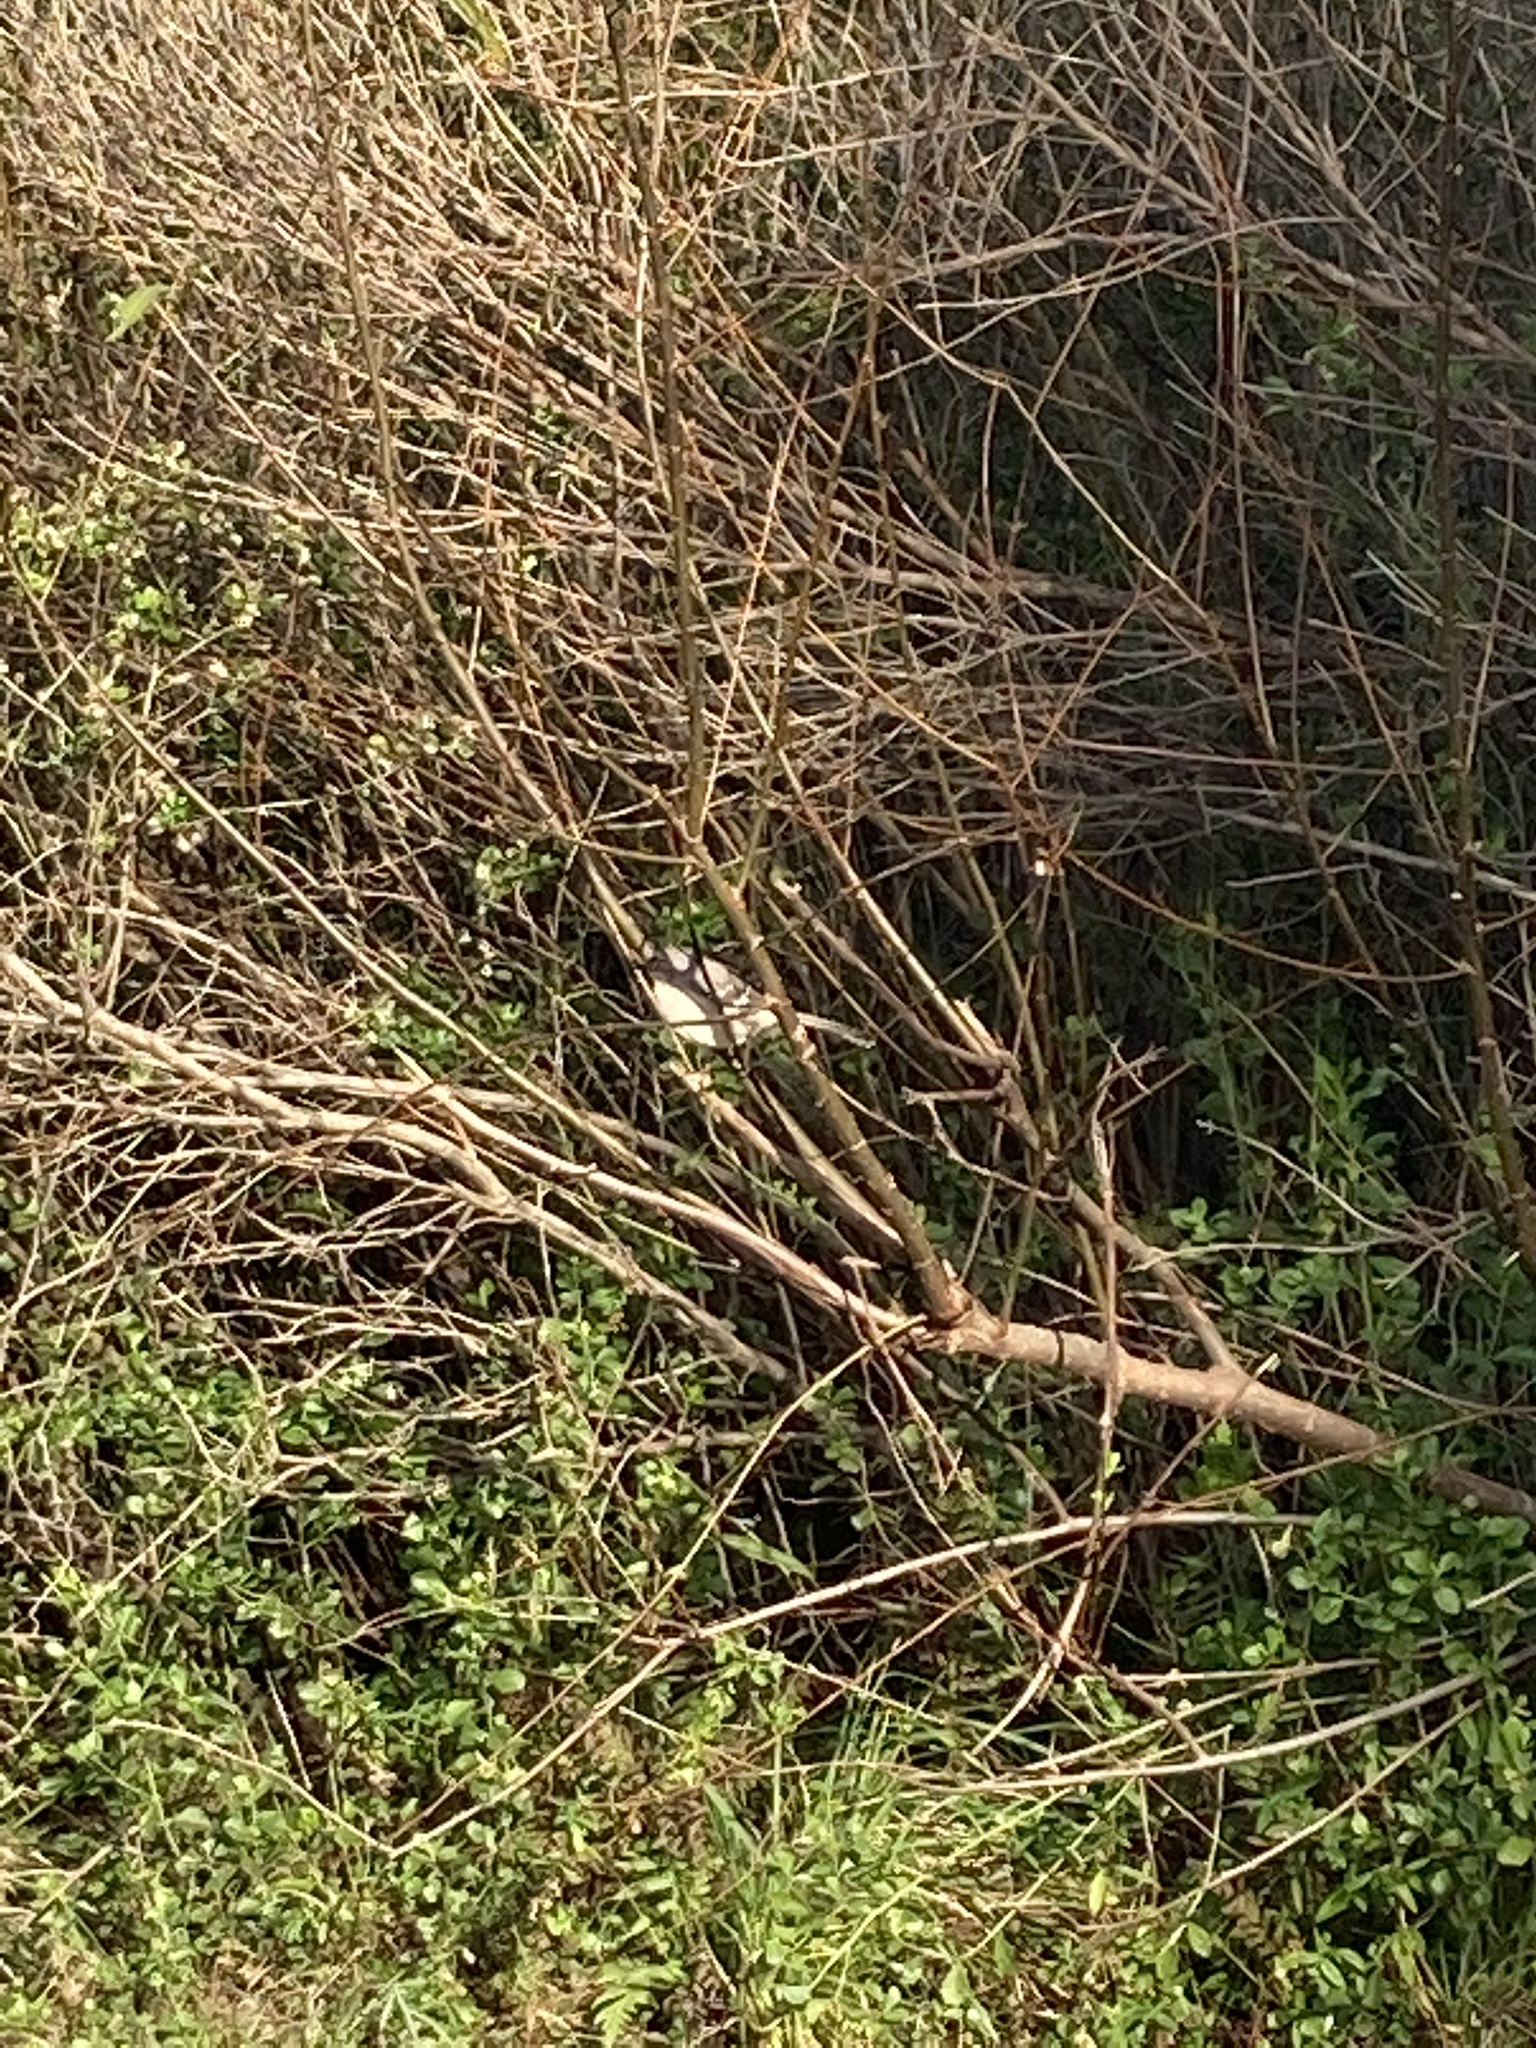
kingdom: Animalia
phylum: Chordata
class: Aves
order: Passeriformes
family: Mimidae
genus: Mimus
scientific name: Mimus polyglottos
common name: Northern mockingbird
